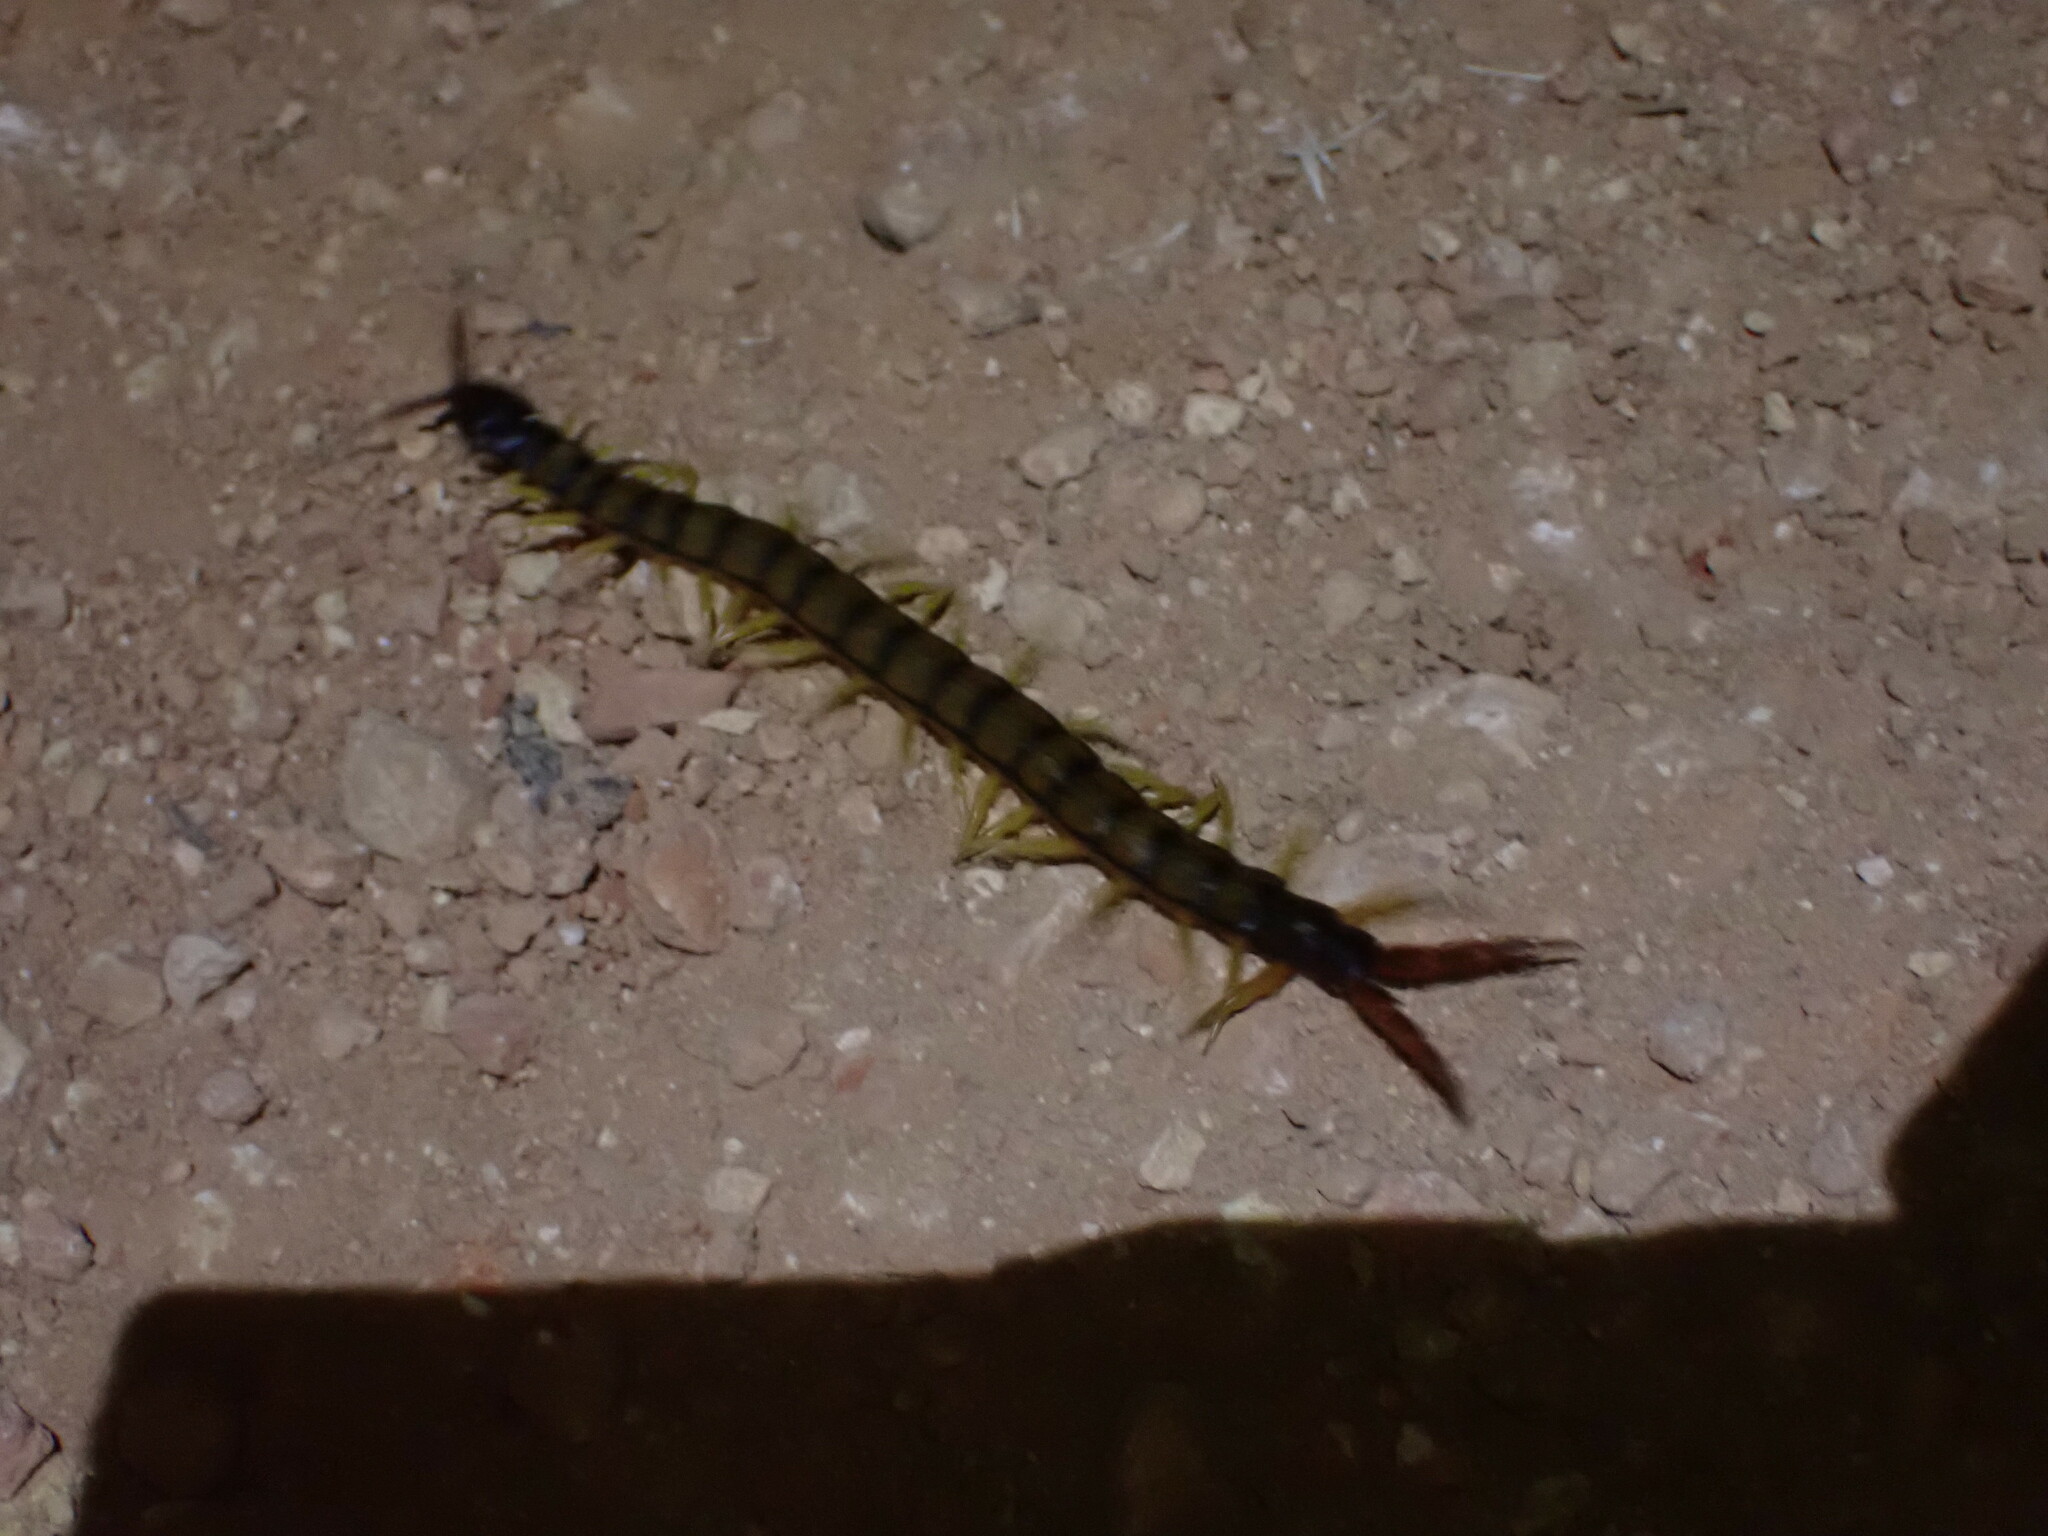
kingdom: Animalia
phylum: Arthropoda
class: Chilopoda
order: Scolopendromorpha
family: Scolopendridae
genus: Scolopendra
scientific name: Scolopendra cingulata
